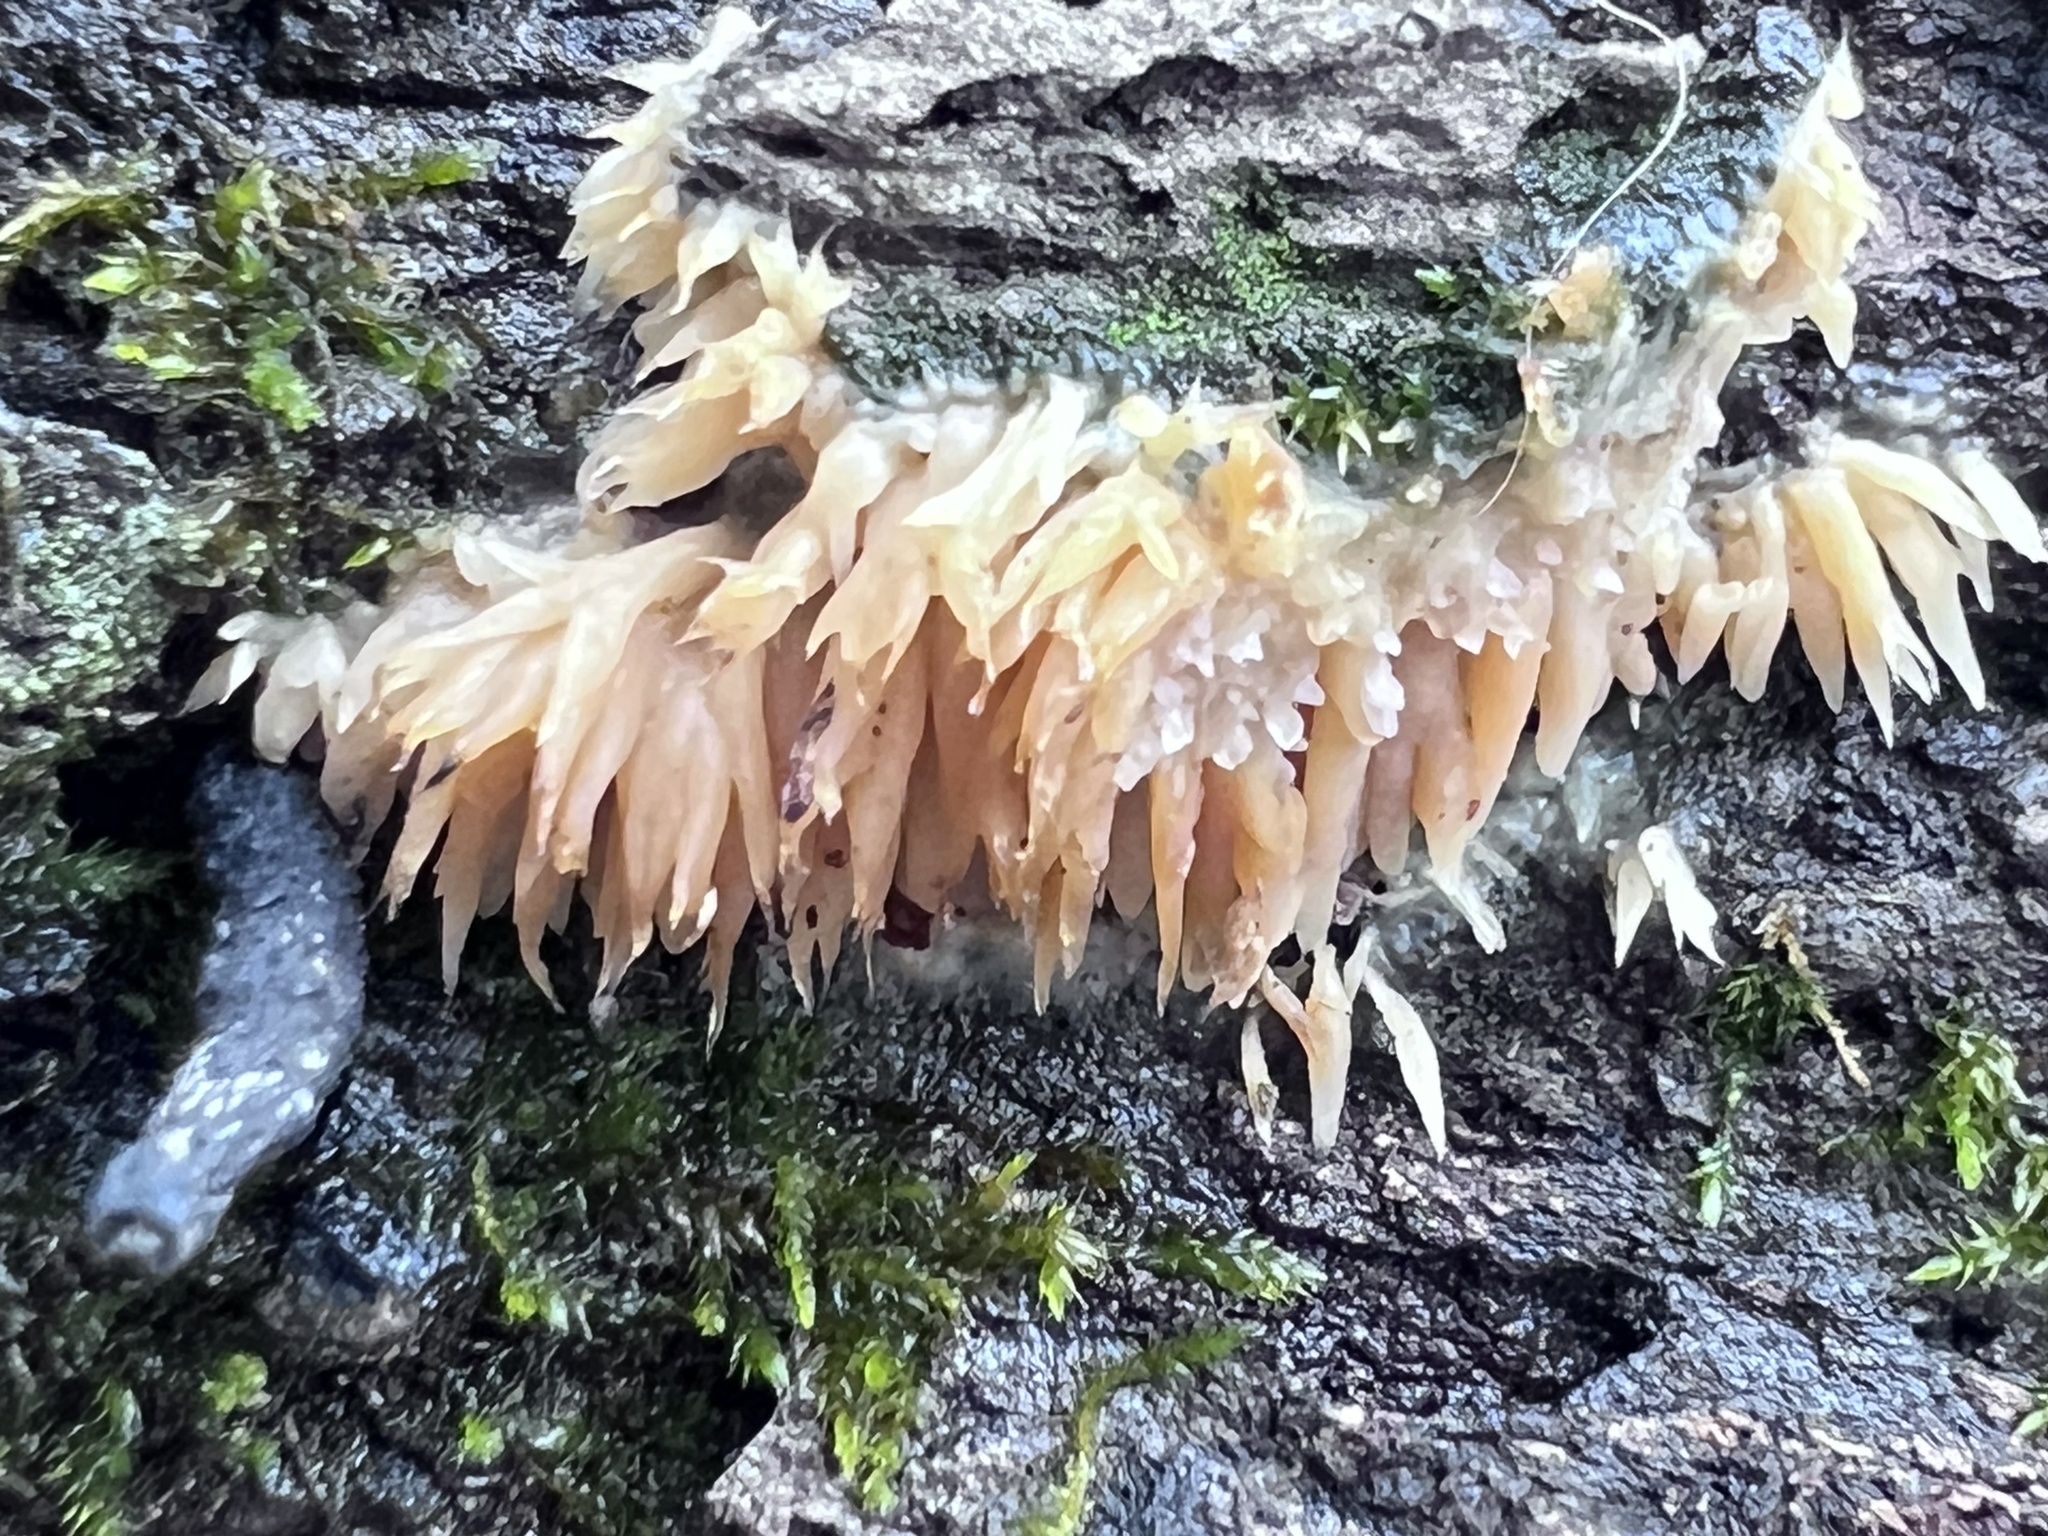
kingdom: Fungi
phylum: Basidiomycota
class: Agaricomycetes
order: Agaricales
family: Radulomycetaceae
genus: Radulomyces
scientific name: Radulomyces copelandii
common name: Asian beauty
